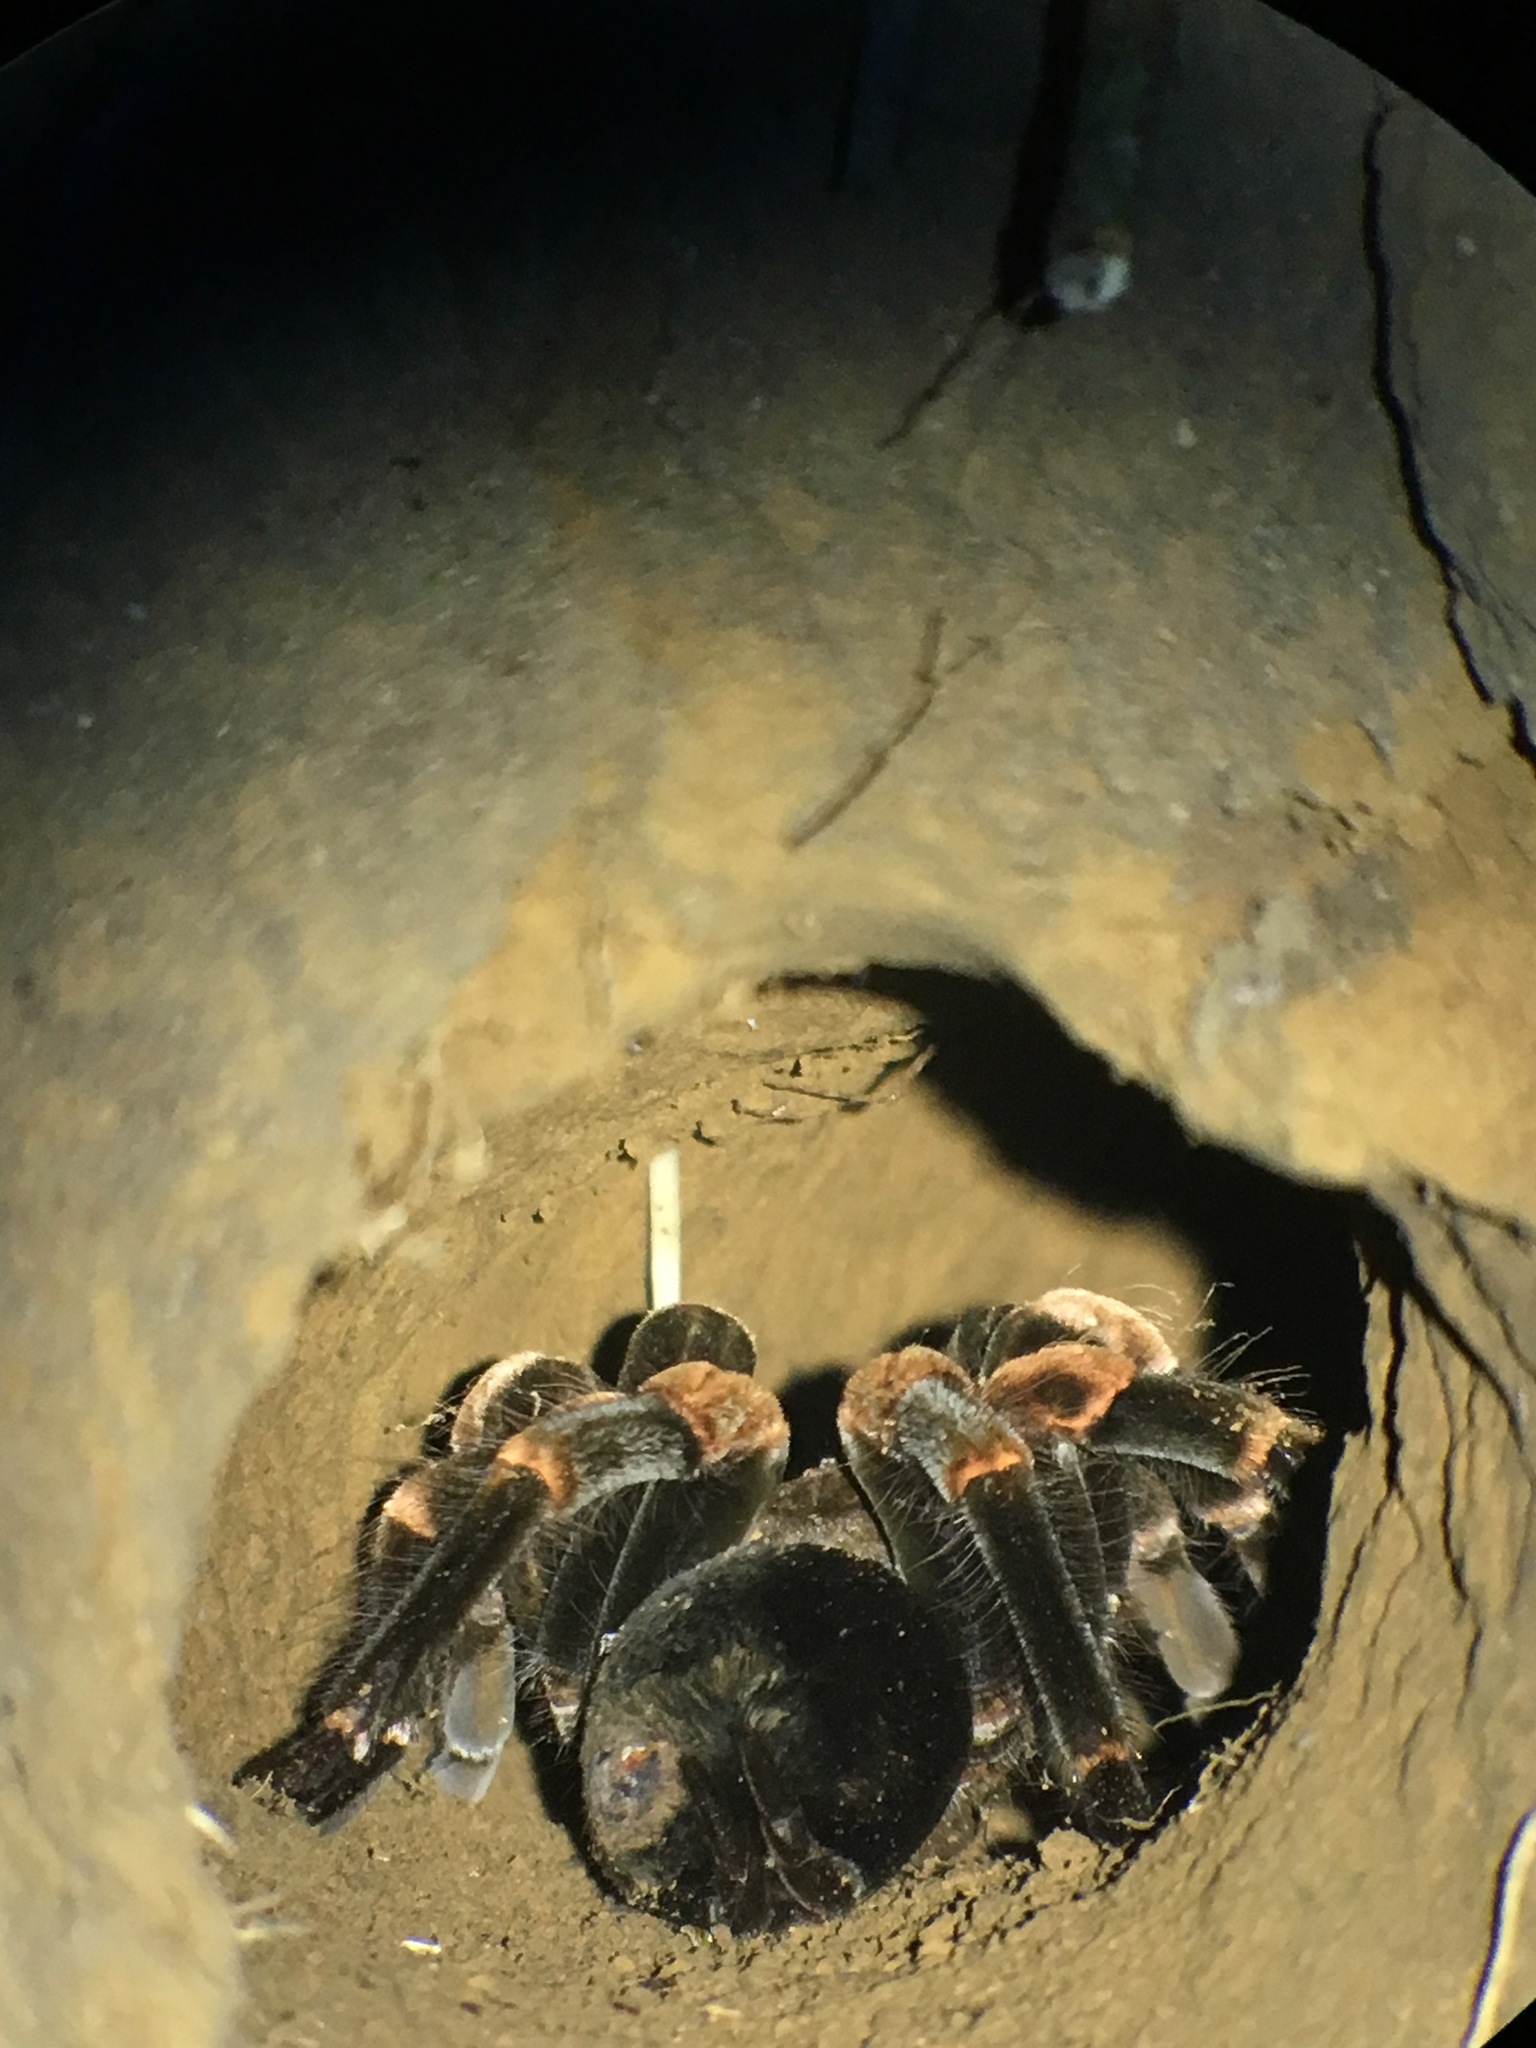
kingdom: Animalia
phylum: Arthropoda
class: Arachnida
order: Araneae
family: Theraphosidae
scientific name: Theraphosidae
